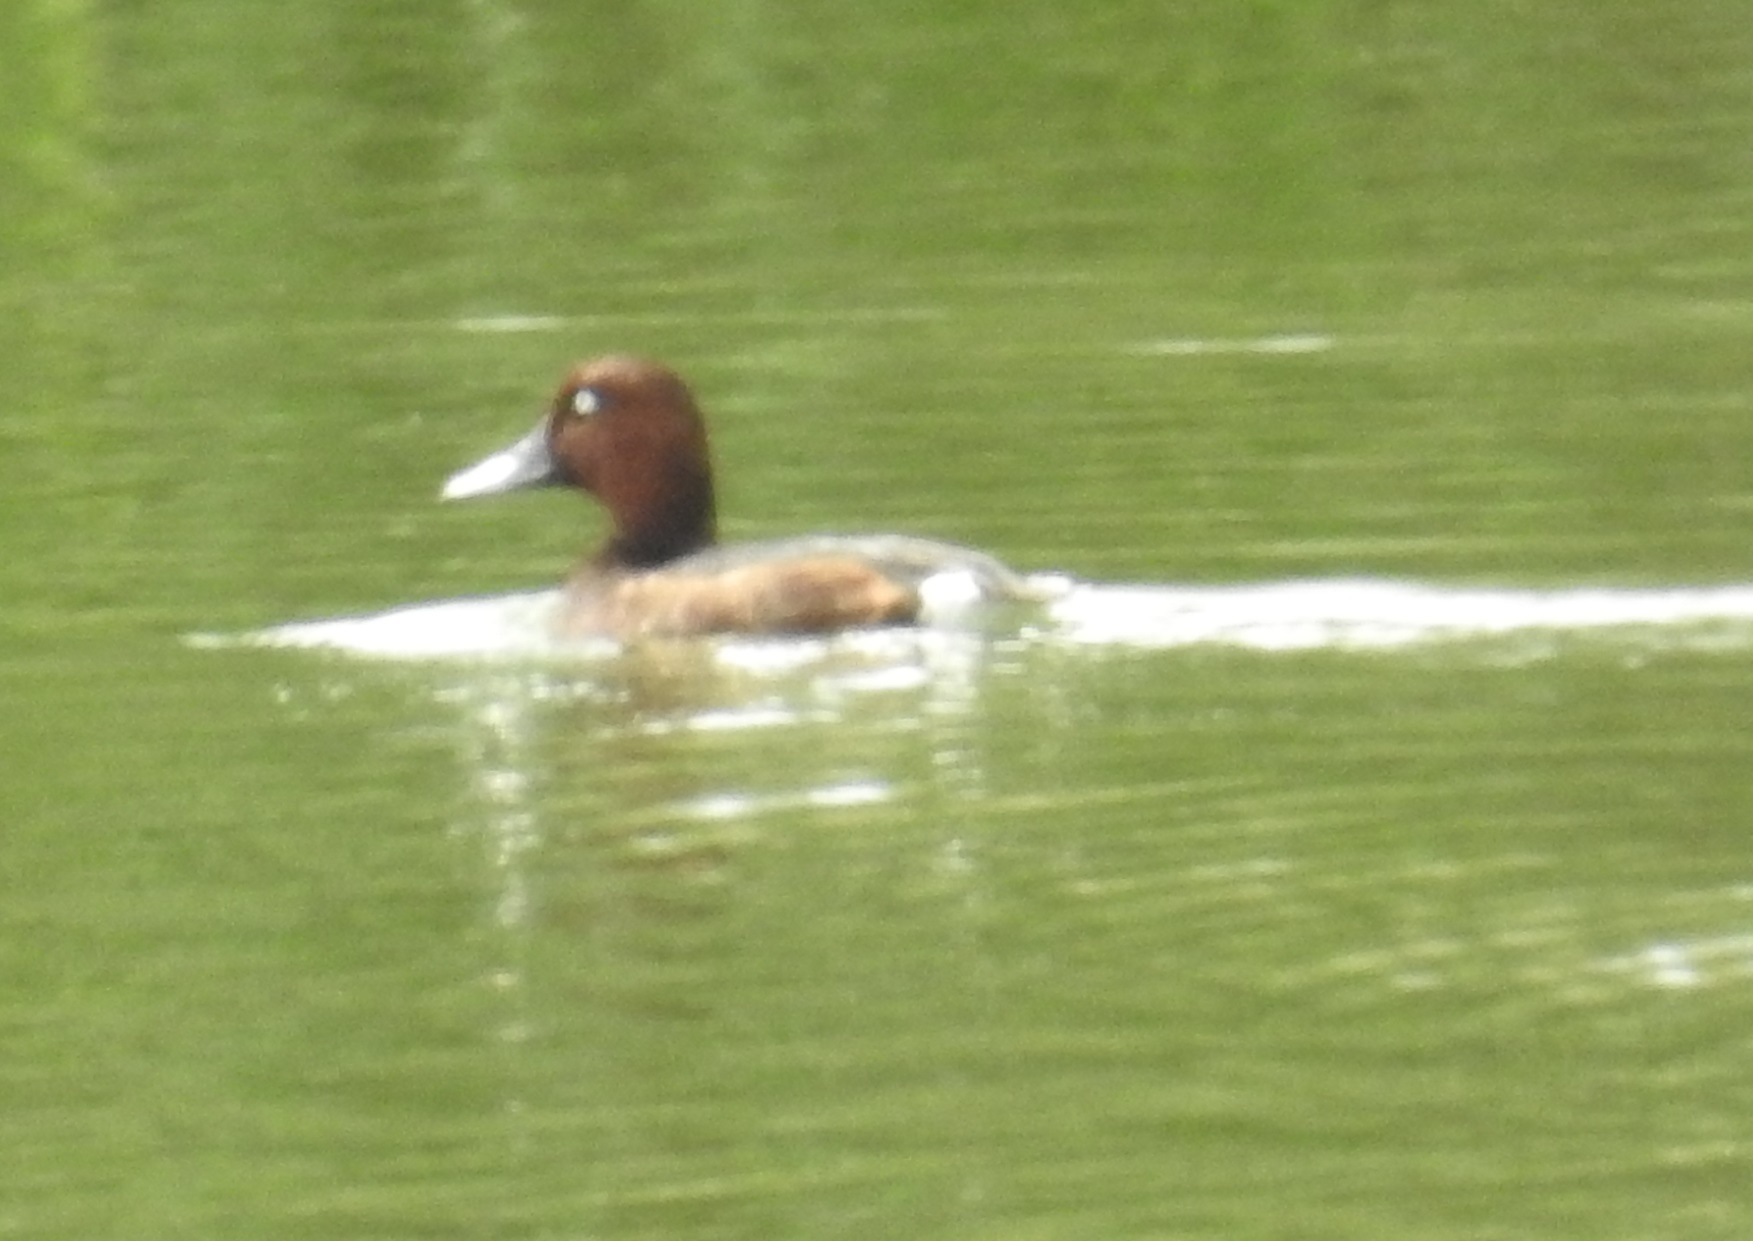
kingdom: Animalia
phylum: Chordata
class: Aves
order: Anseriformes
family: Anatidae
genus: Aythya
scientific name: Aythya nyroca
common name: Ferruginous duck
